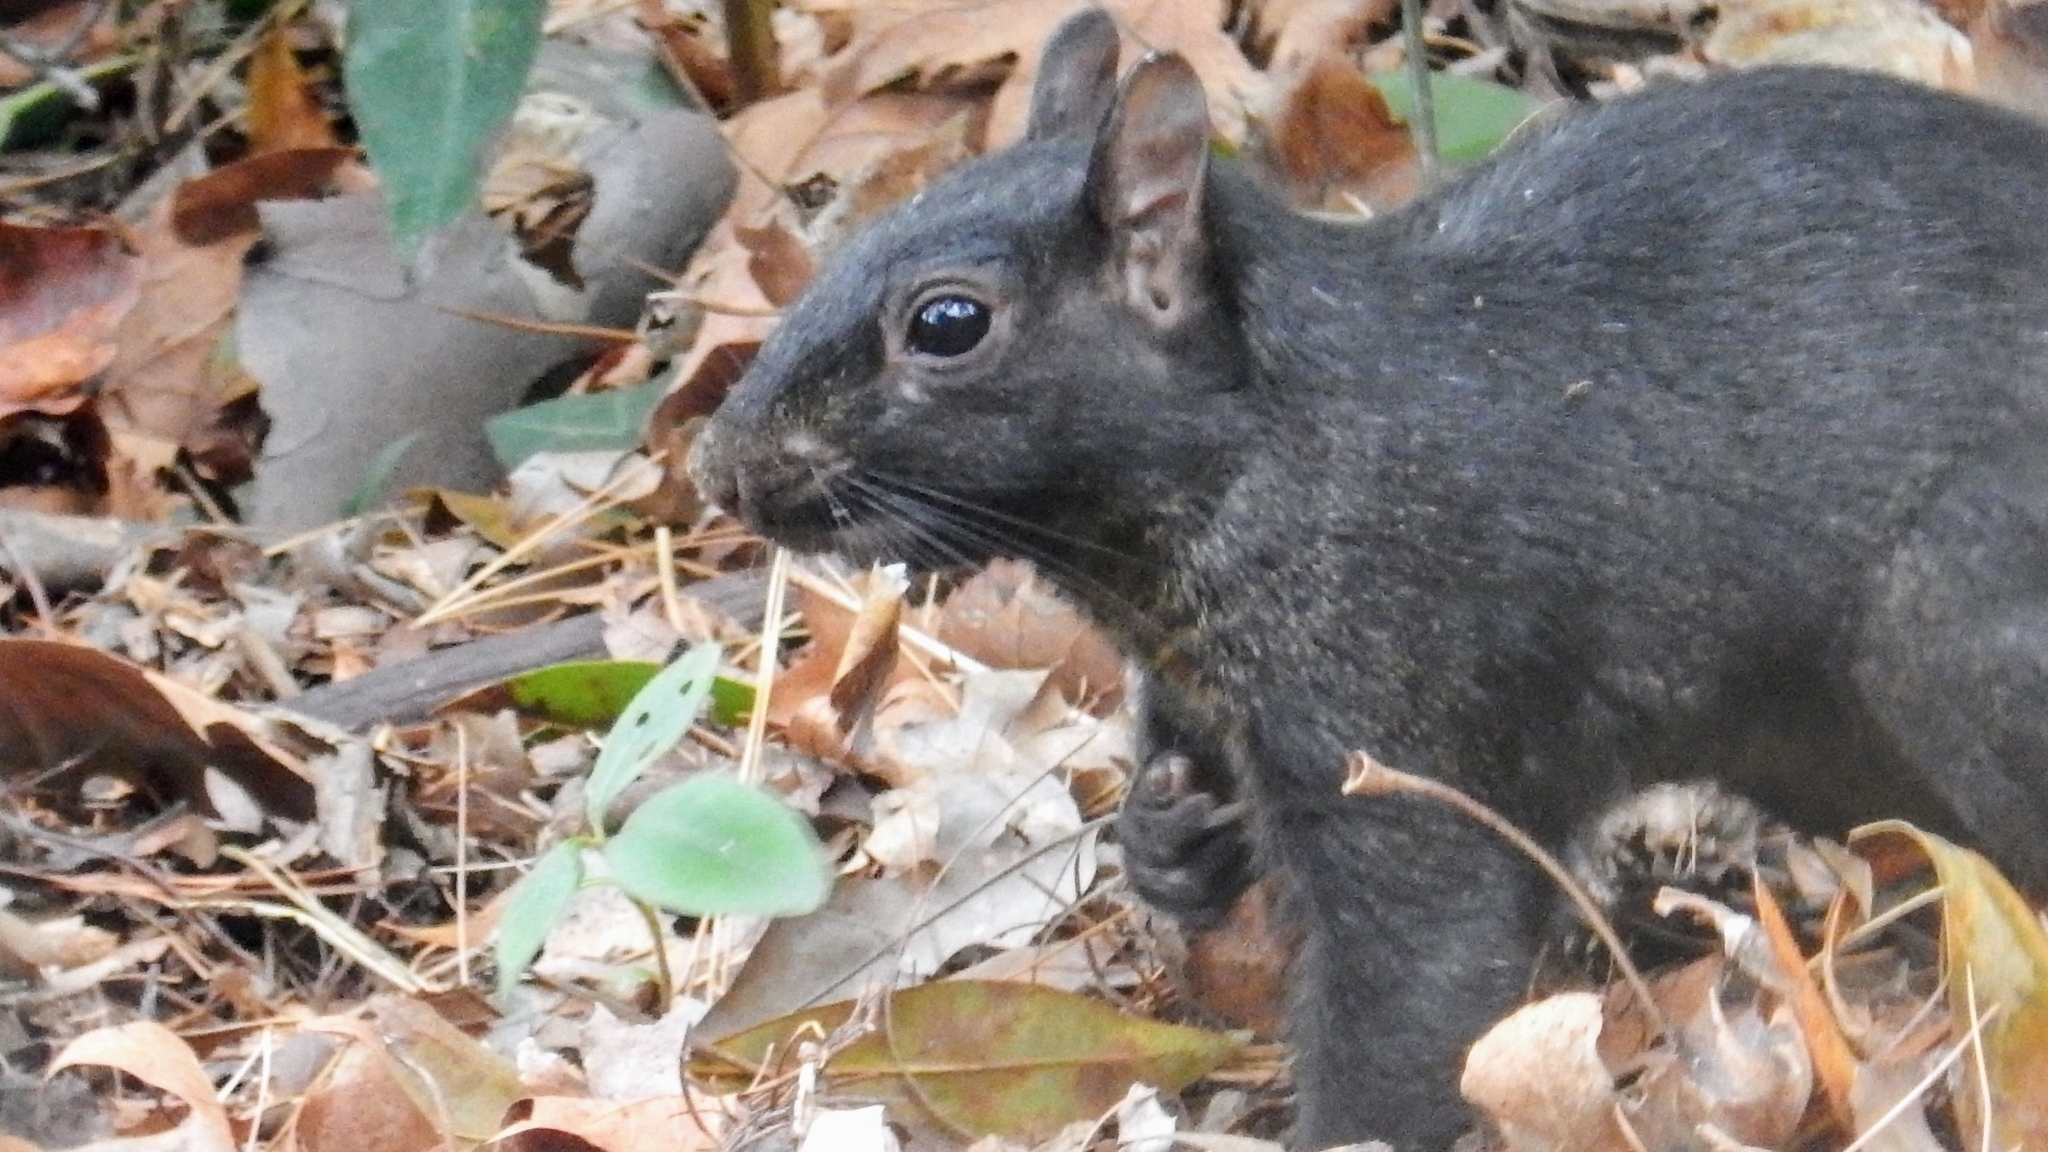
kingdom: Animalia
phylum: Chordata
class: Mammalia
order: Rodentia
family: Sciuridae
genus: Sciurus
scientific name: Sciurus carolinensis
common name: Eastern gray squirrel
